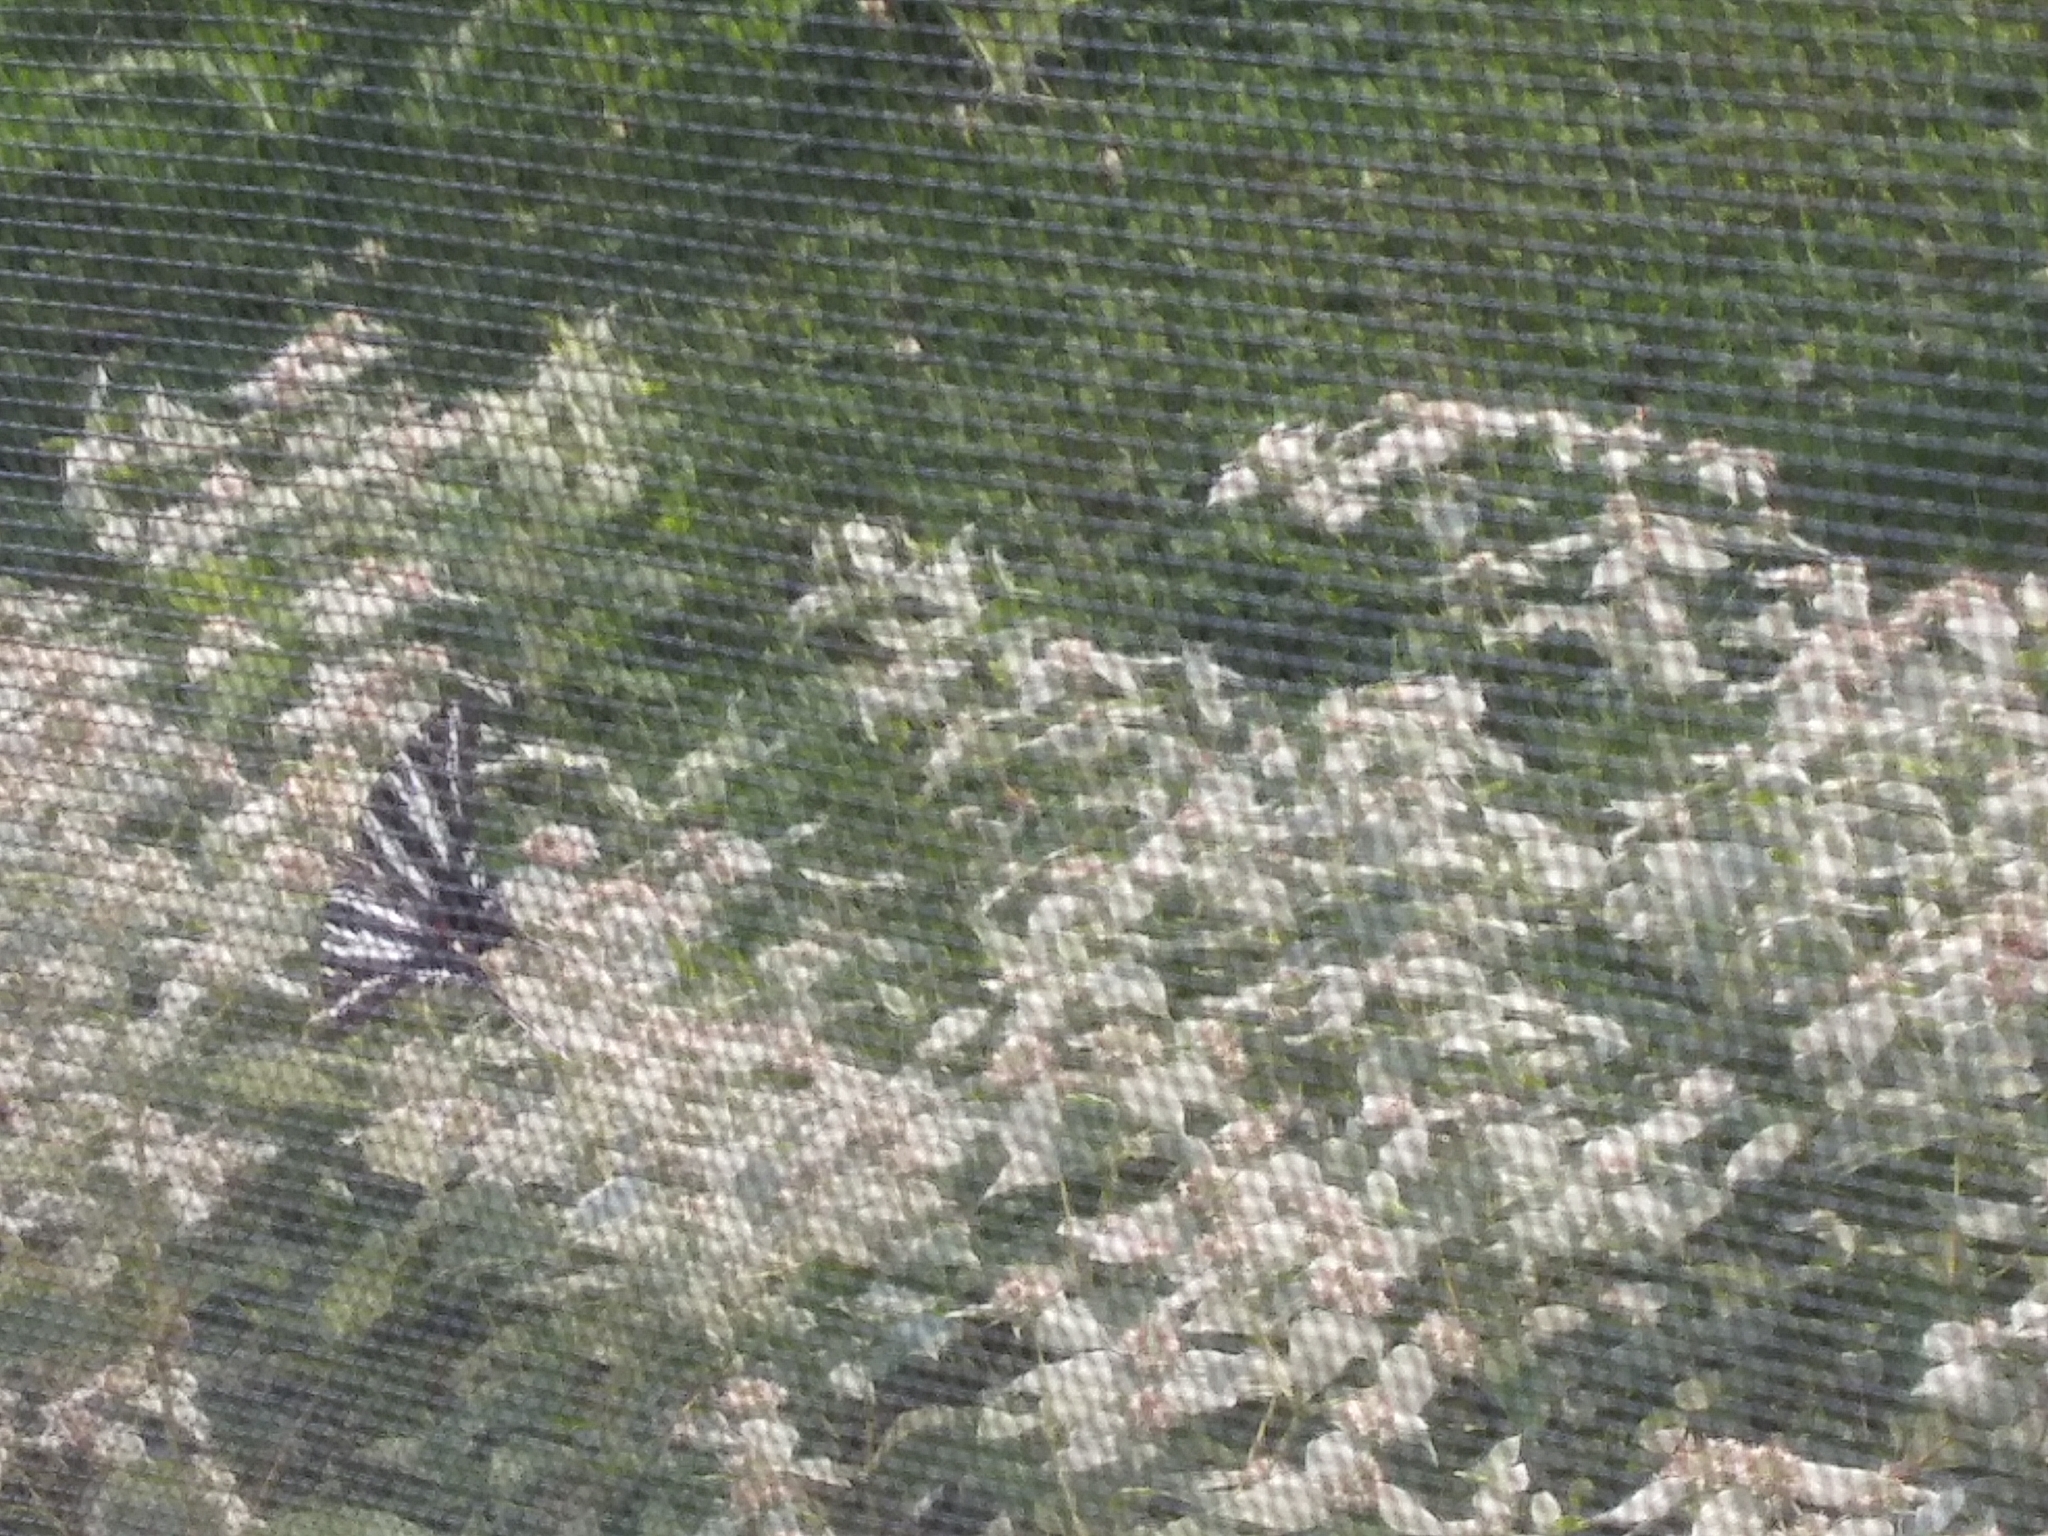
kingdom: Animalia
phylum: Arthropoda
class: Insecta
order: Lepidoptera
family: Papilionidae
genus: Protographium
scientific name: Protographium marcellus
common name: Zebra swallowtail
